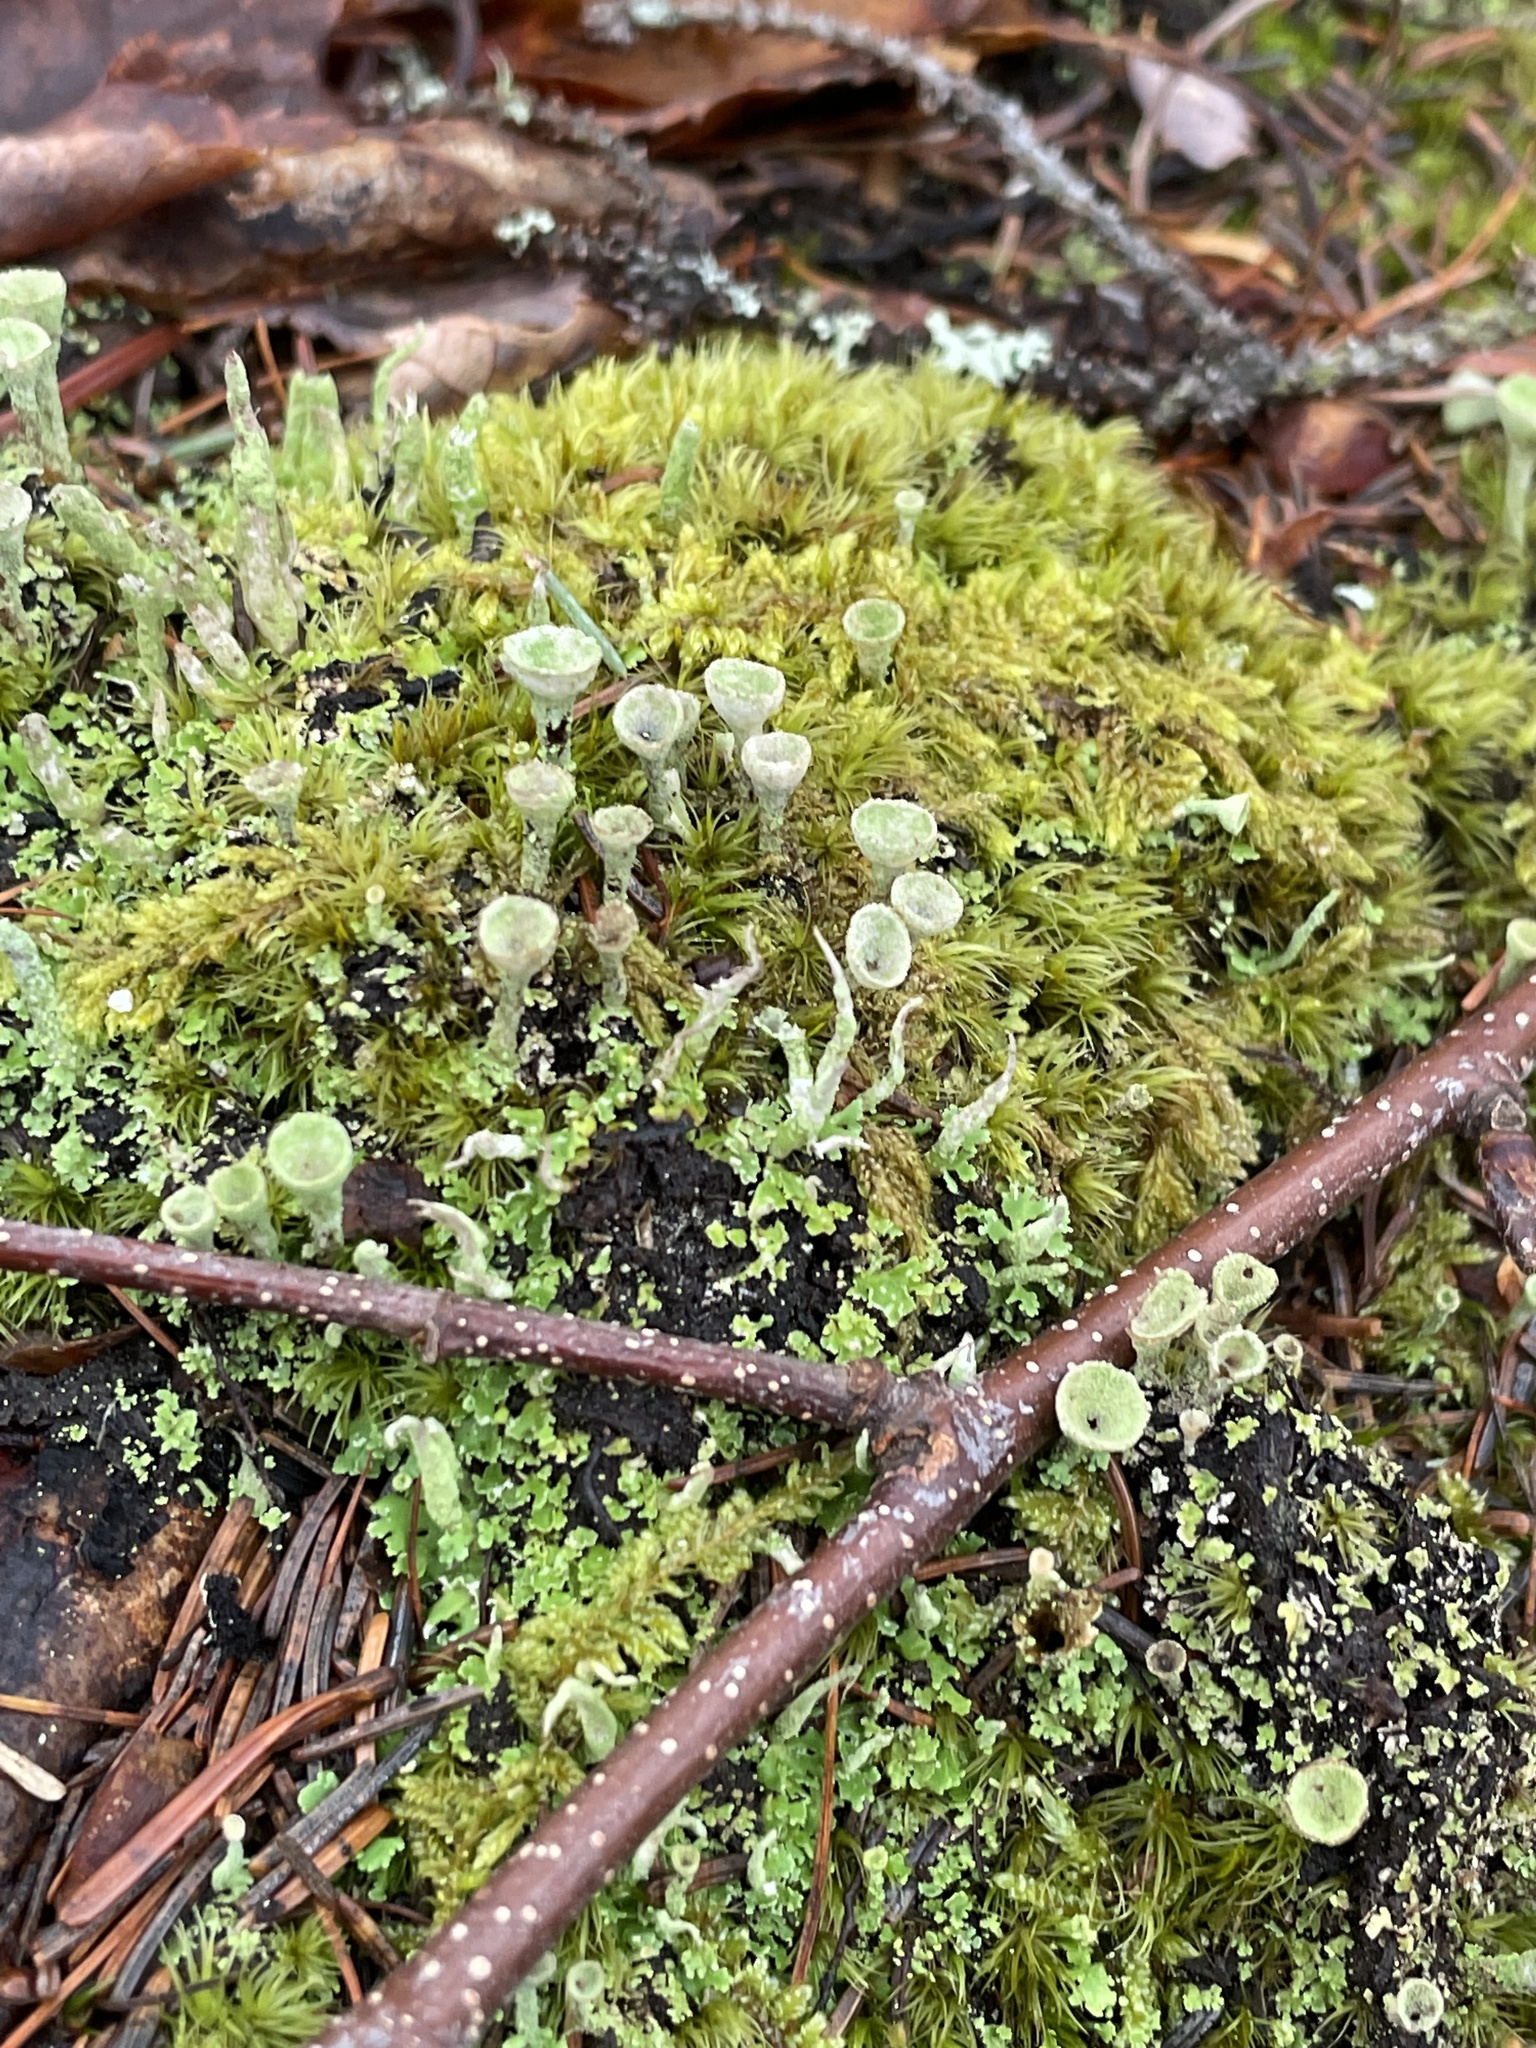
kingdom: Fungi
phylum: Ascomycota
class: Lecanoromycetes
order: Lecanorales
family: Cladoniaceae
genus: Cladonia
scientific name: Cladonia fimbriata
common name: Powdered trumpet lichen
